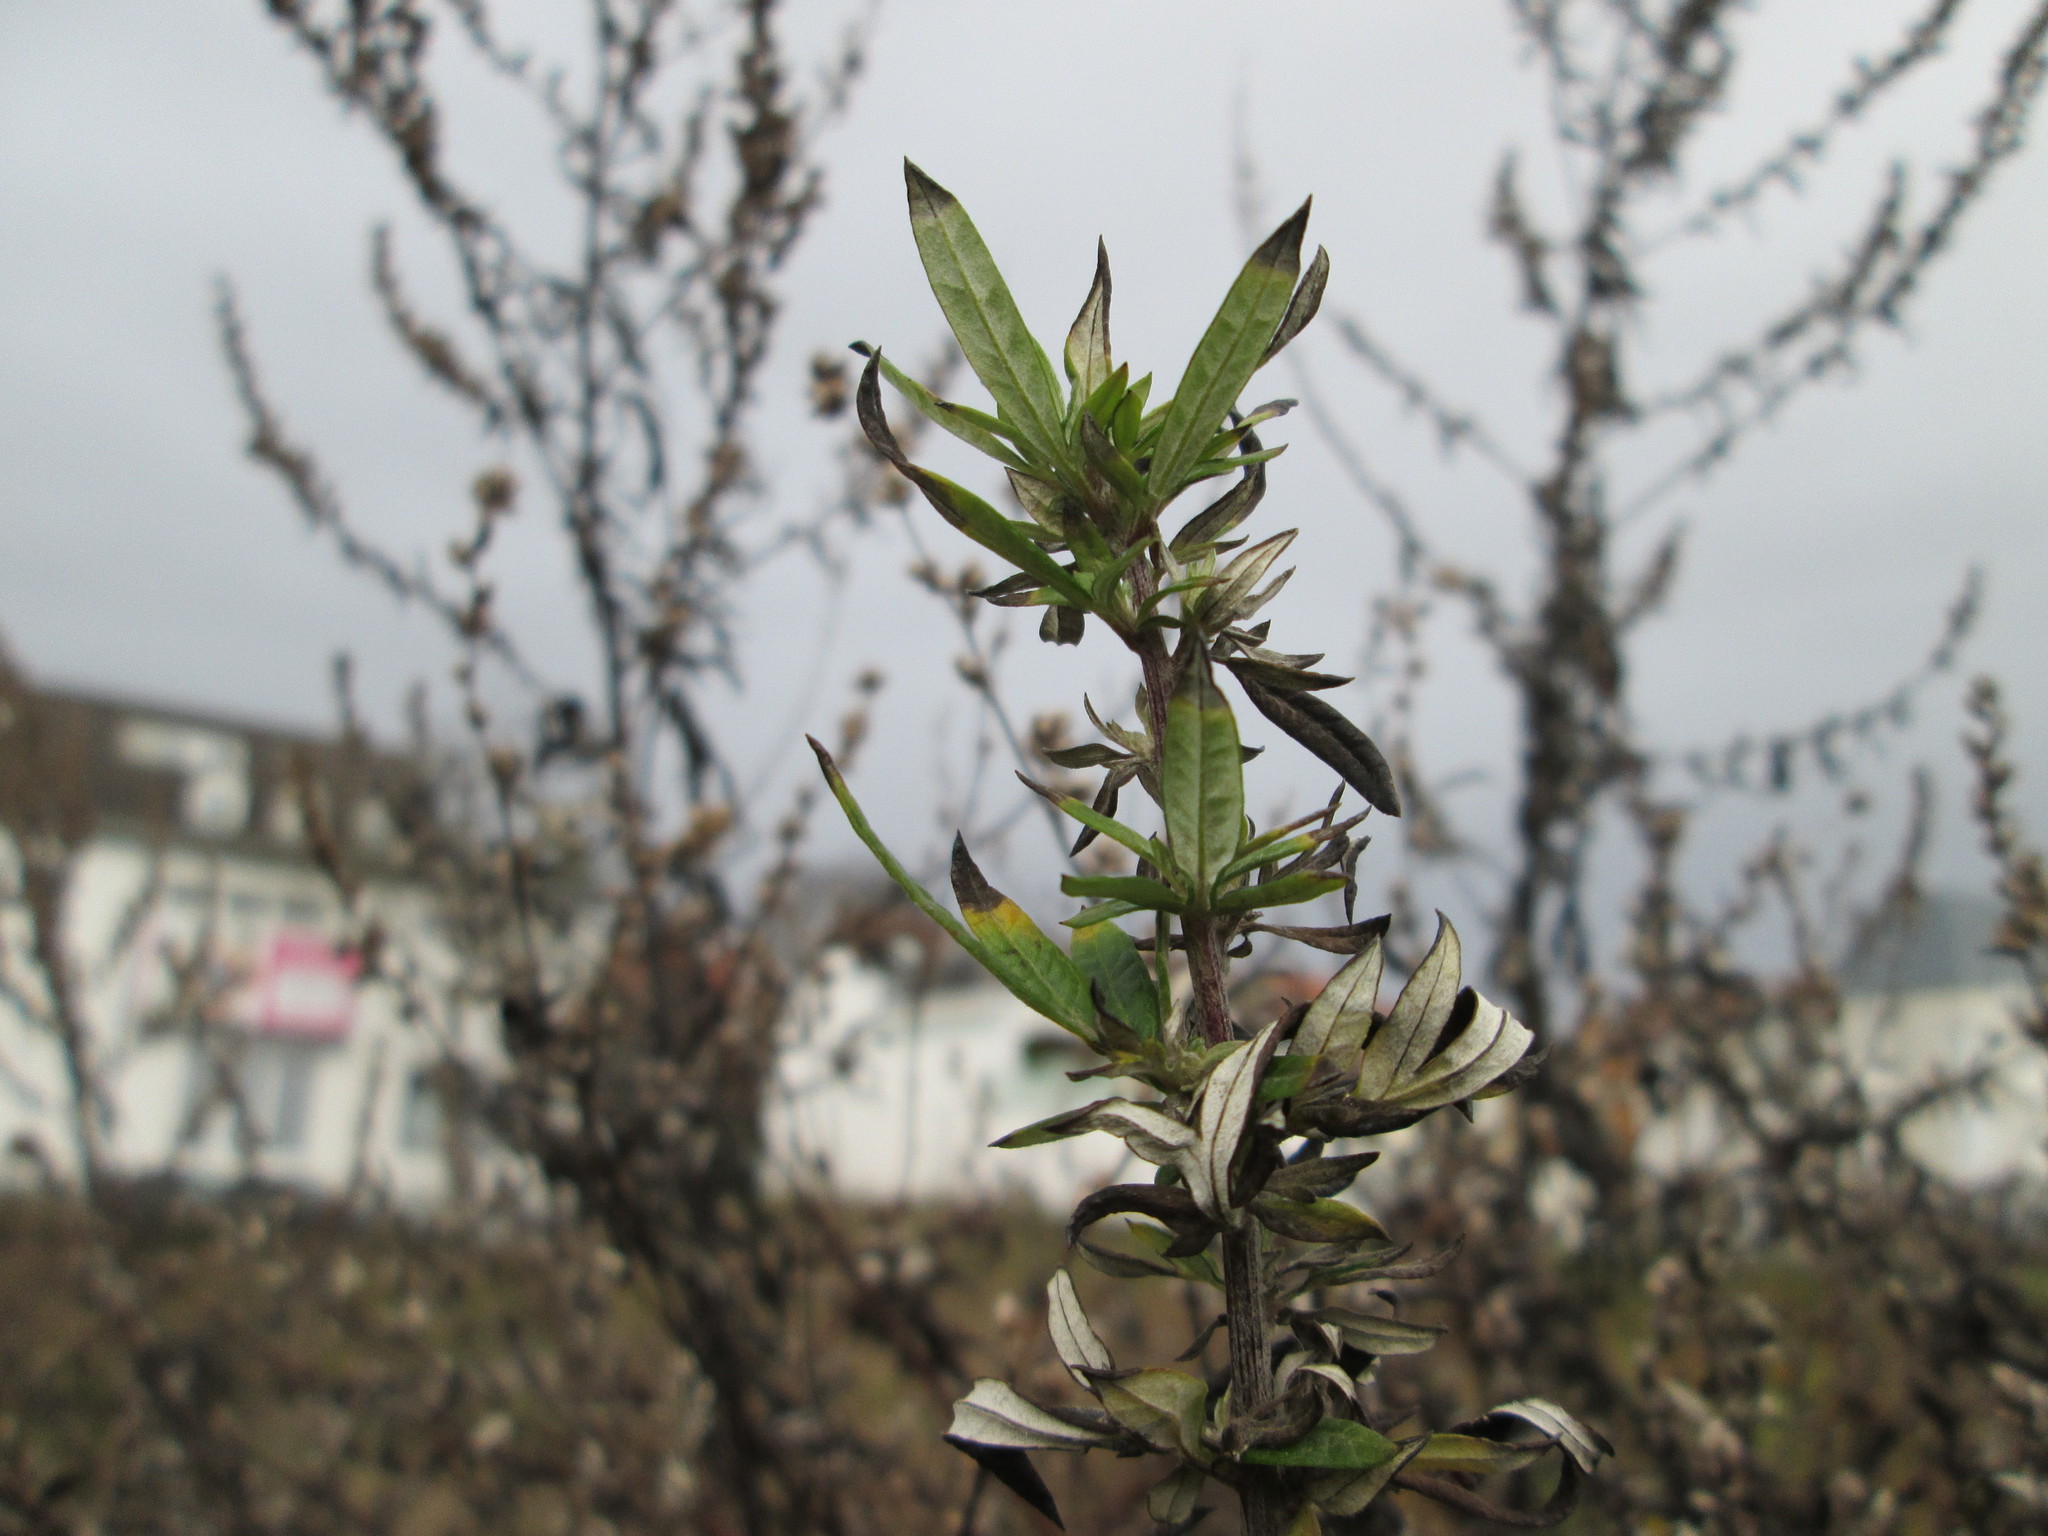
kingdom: Plantae
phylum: Tracheophyta
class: Magnoliopsida
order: Asterales
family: Asteraceae
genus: Artemisia
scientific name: Artemisia vulgaris
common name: Mugwort
